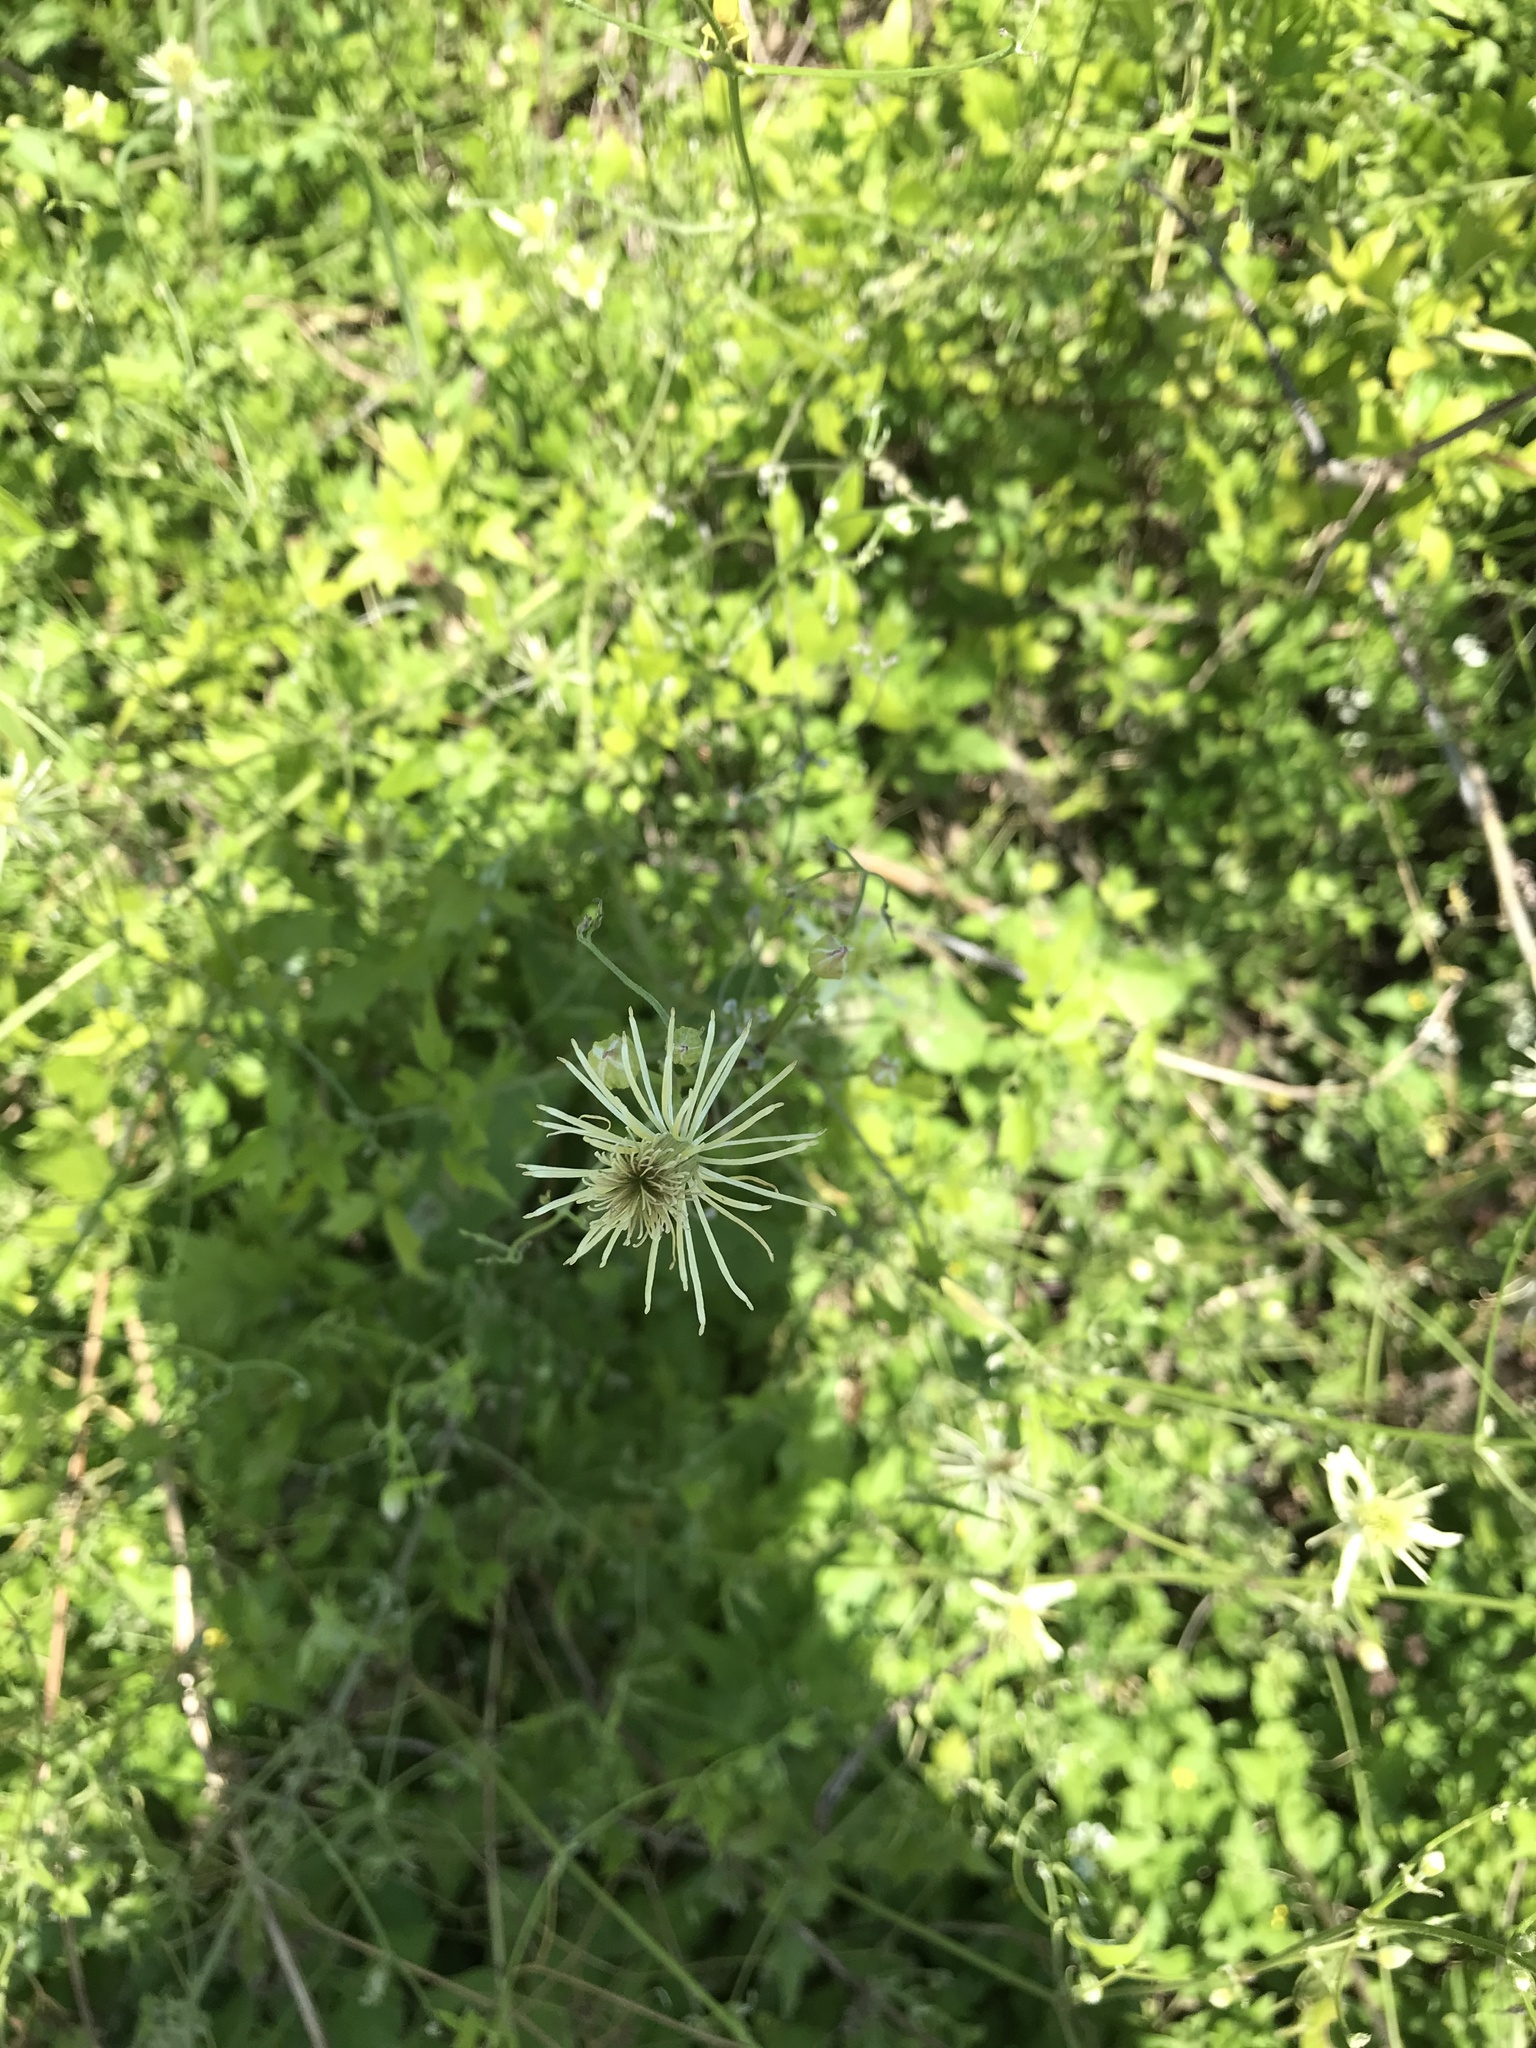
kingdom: Plantae
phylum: Tracheophyta
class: Magnoliopsida
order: Ranunculales
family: Ranunculaceae
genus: Clematis
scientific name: Clematis drummondii
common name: Texas virgin's bower
